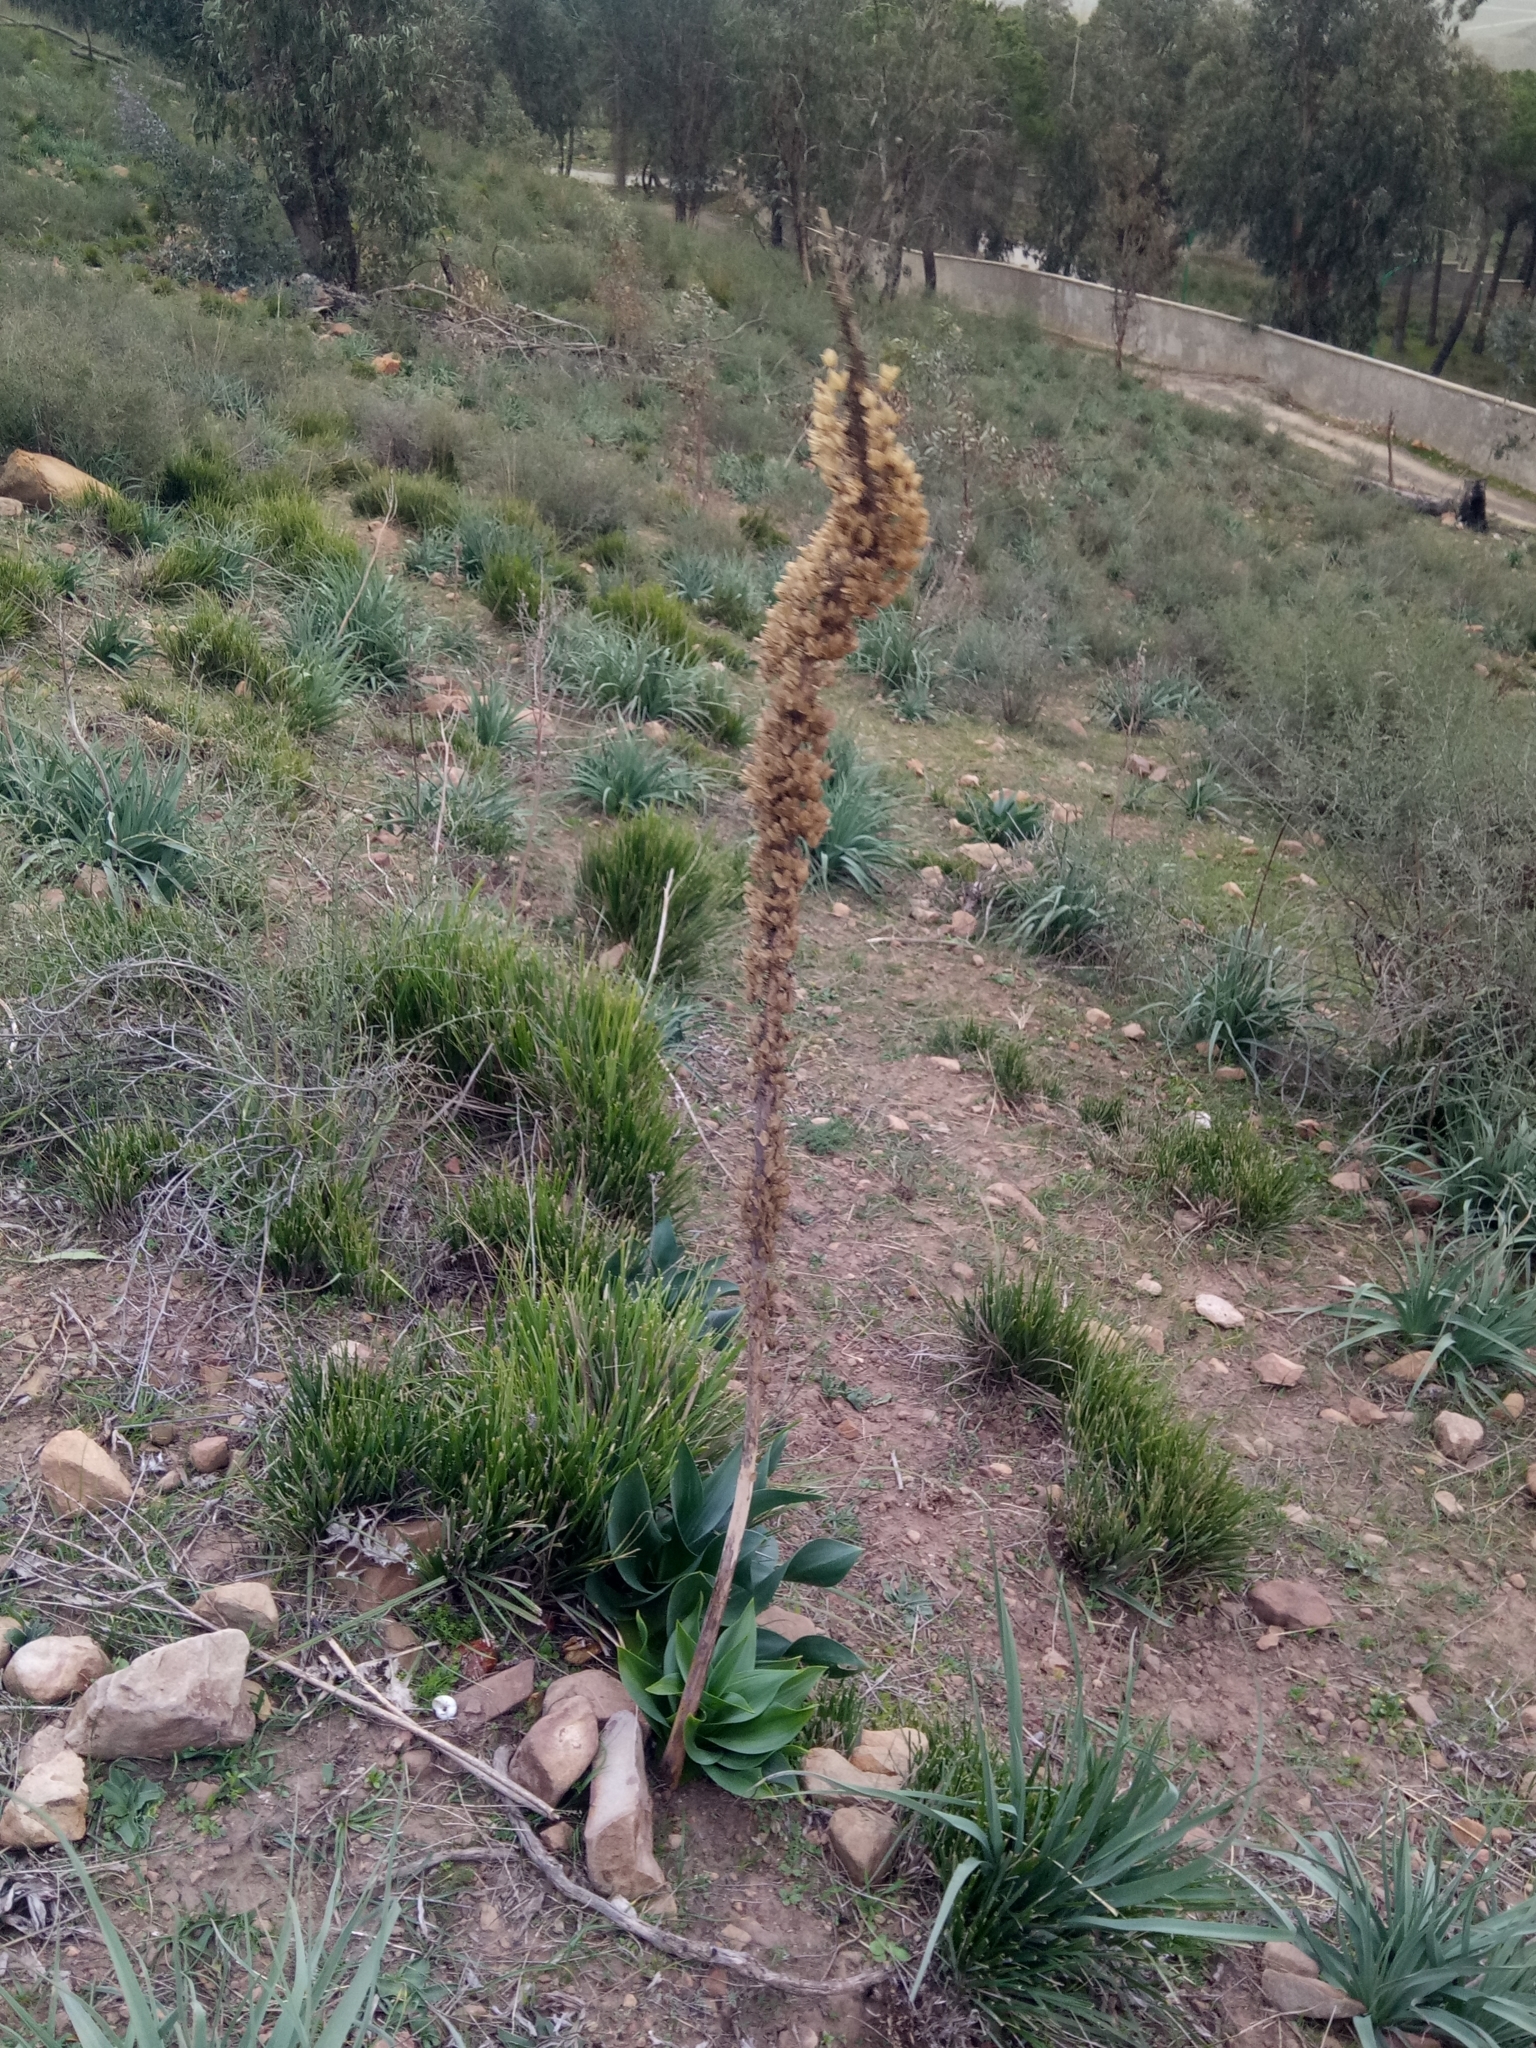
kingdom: Plantae
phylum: Tracheophyta
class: Liliopsida
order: Asparagales
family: Asparagaceae
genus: Drimia
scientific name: Drimia numidica
